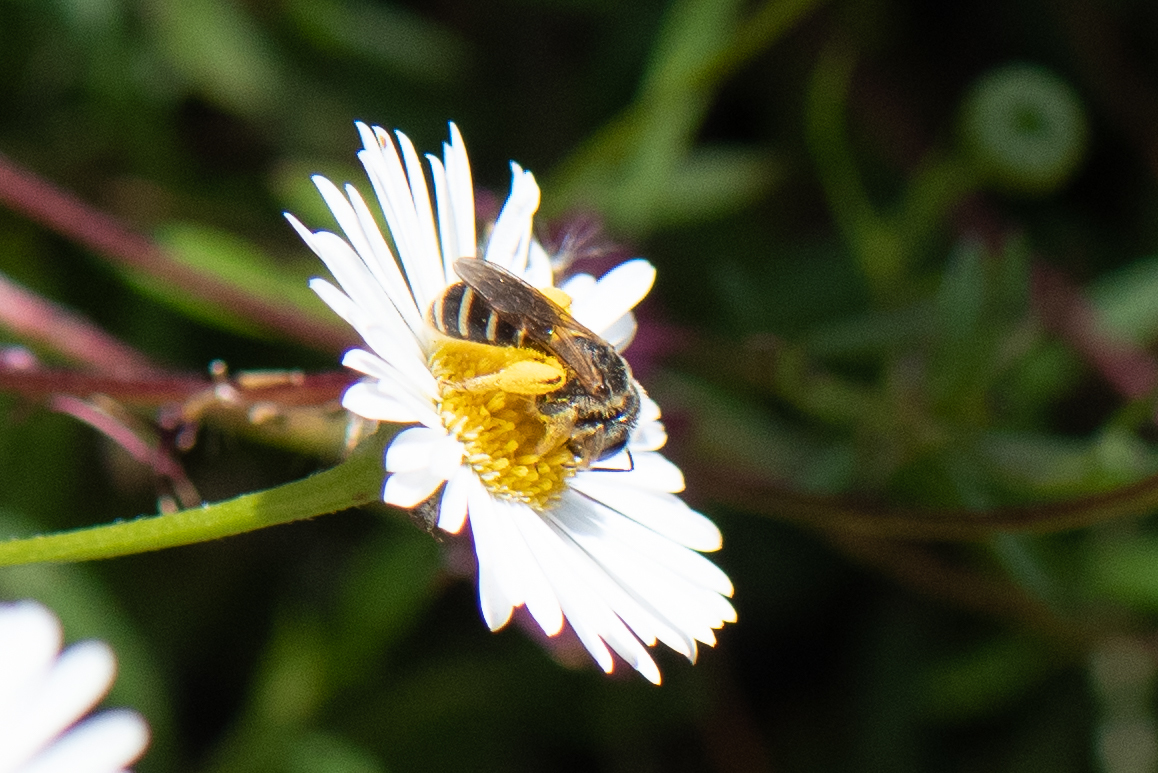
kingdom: Animalia
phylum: Arthropoda
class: Insecta
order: Hymenoptera
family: Halictidae
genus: Halictus
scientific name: Halictus ligatus
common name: Ligated furrow bee
